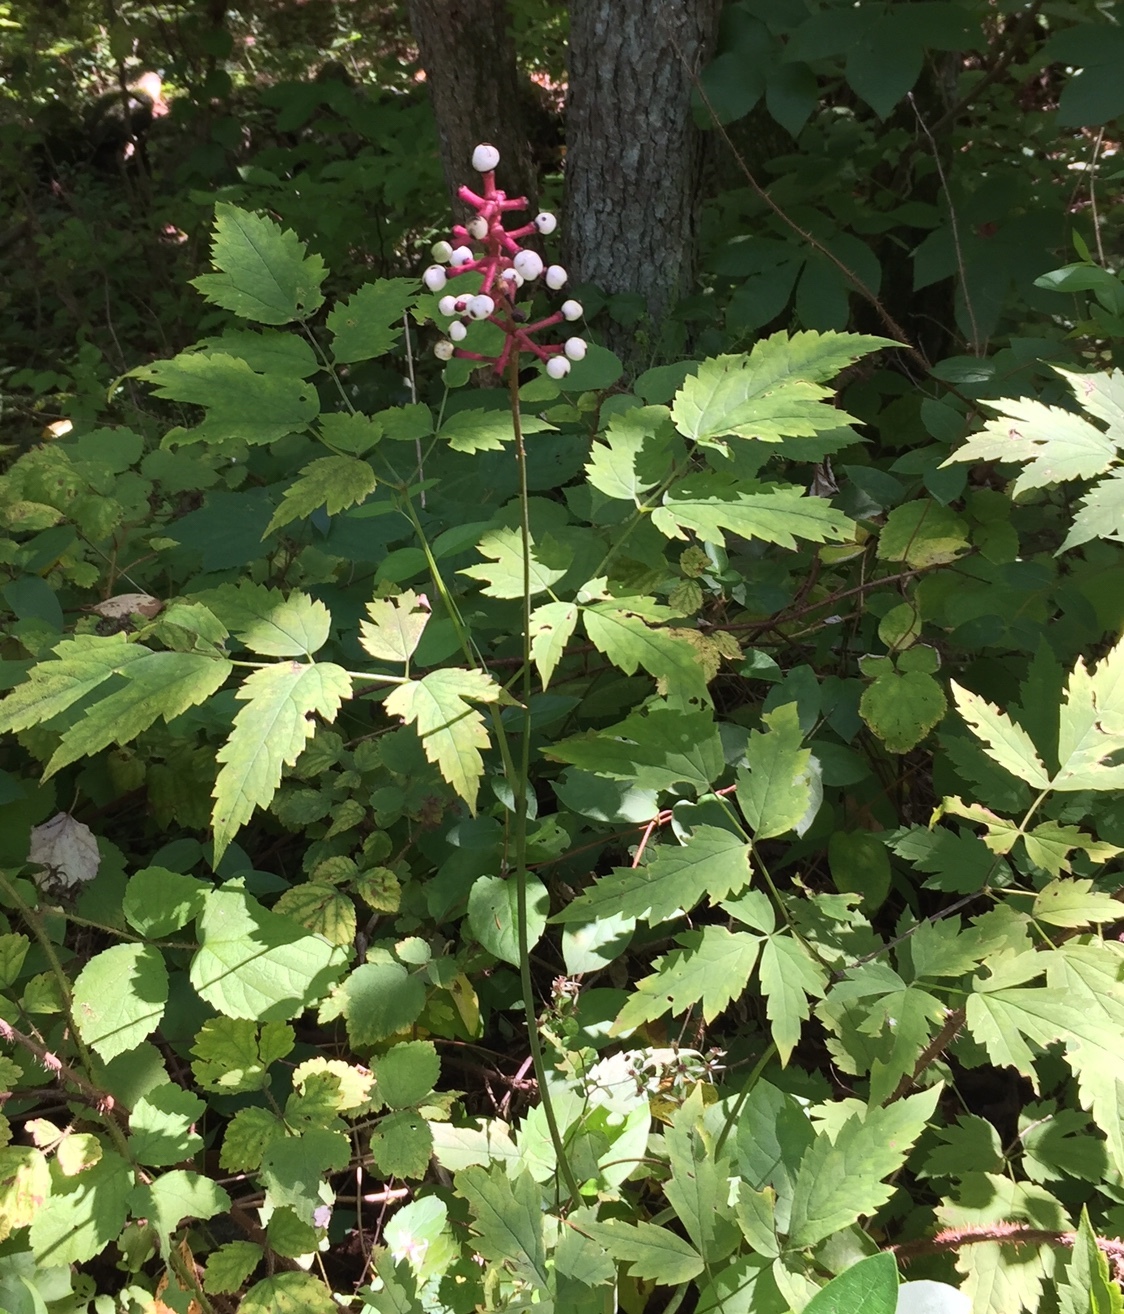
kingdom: Plantae
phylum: Tracheophyta
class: Magnoliopsida
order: Ranunculales
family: Ranunculaceae
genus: Actaea
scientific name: Actaea pachypoda
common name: Doll's-eyes
